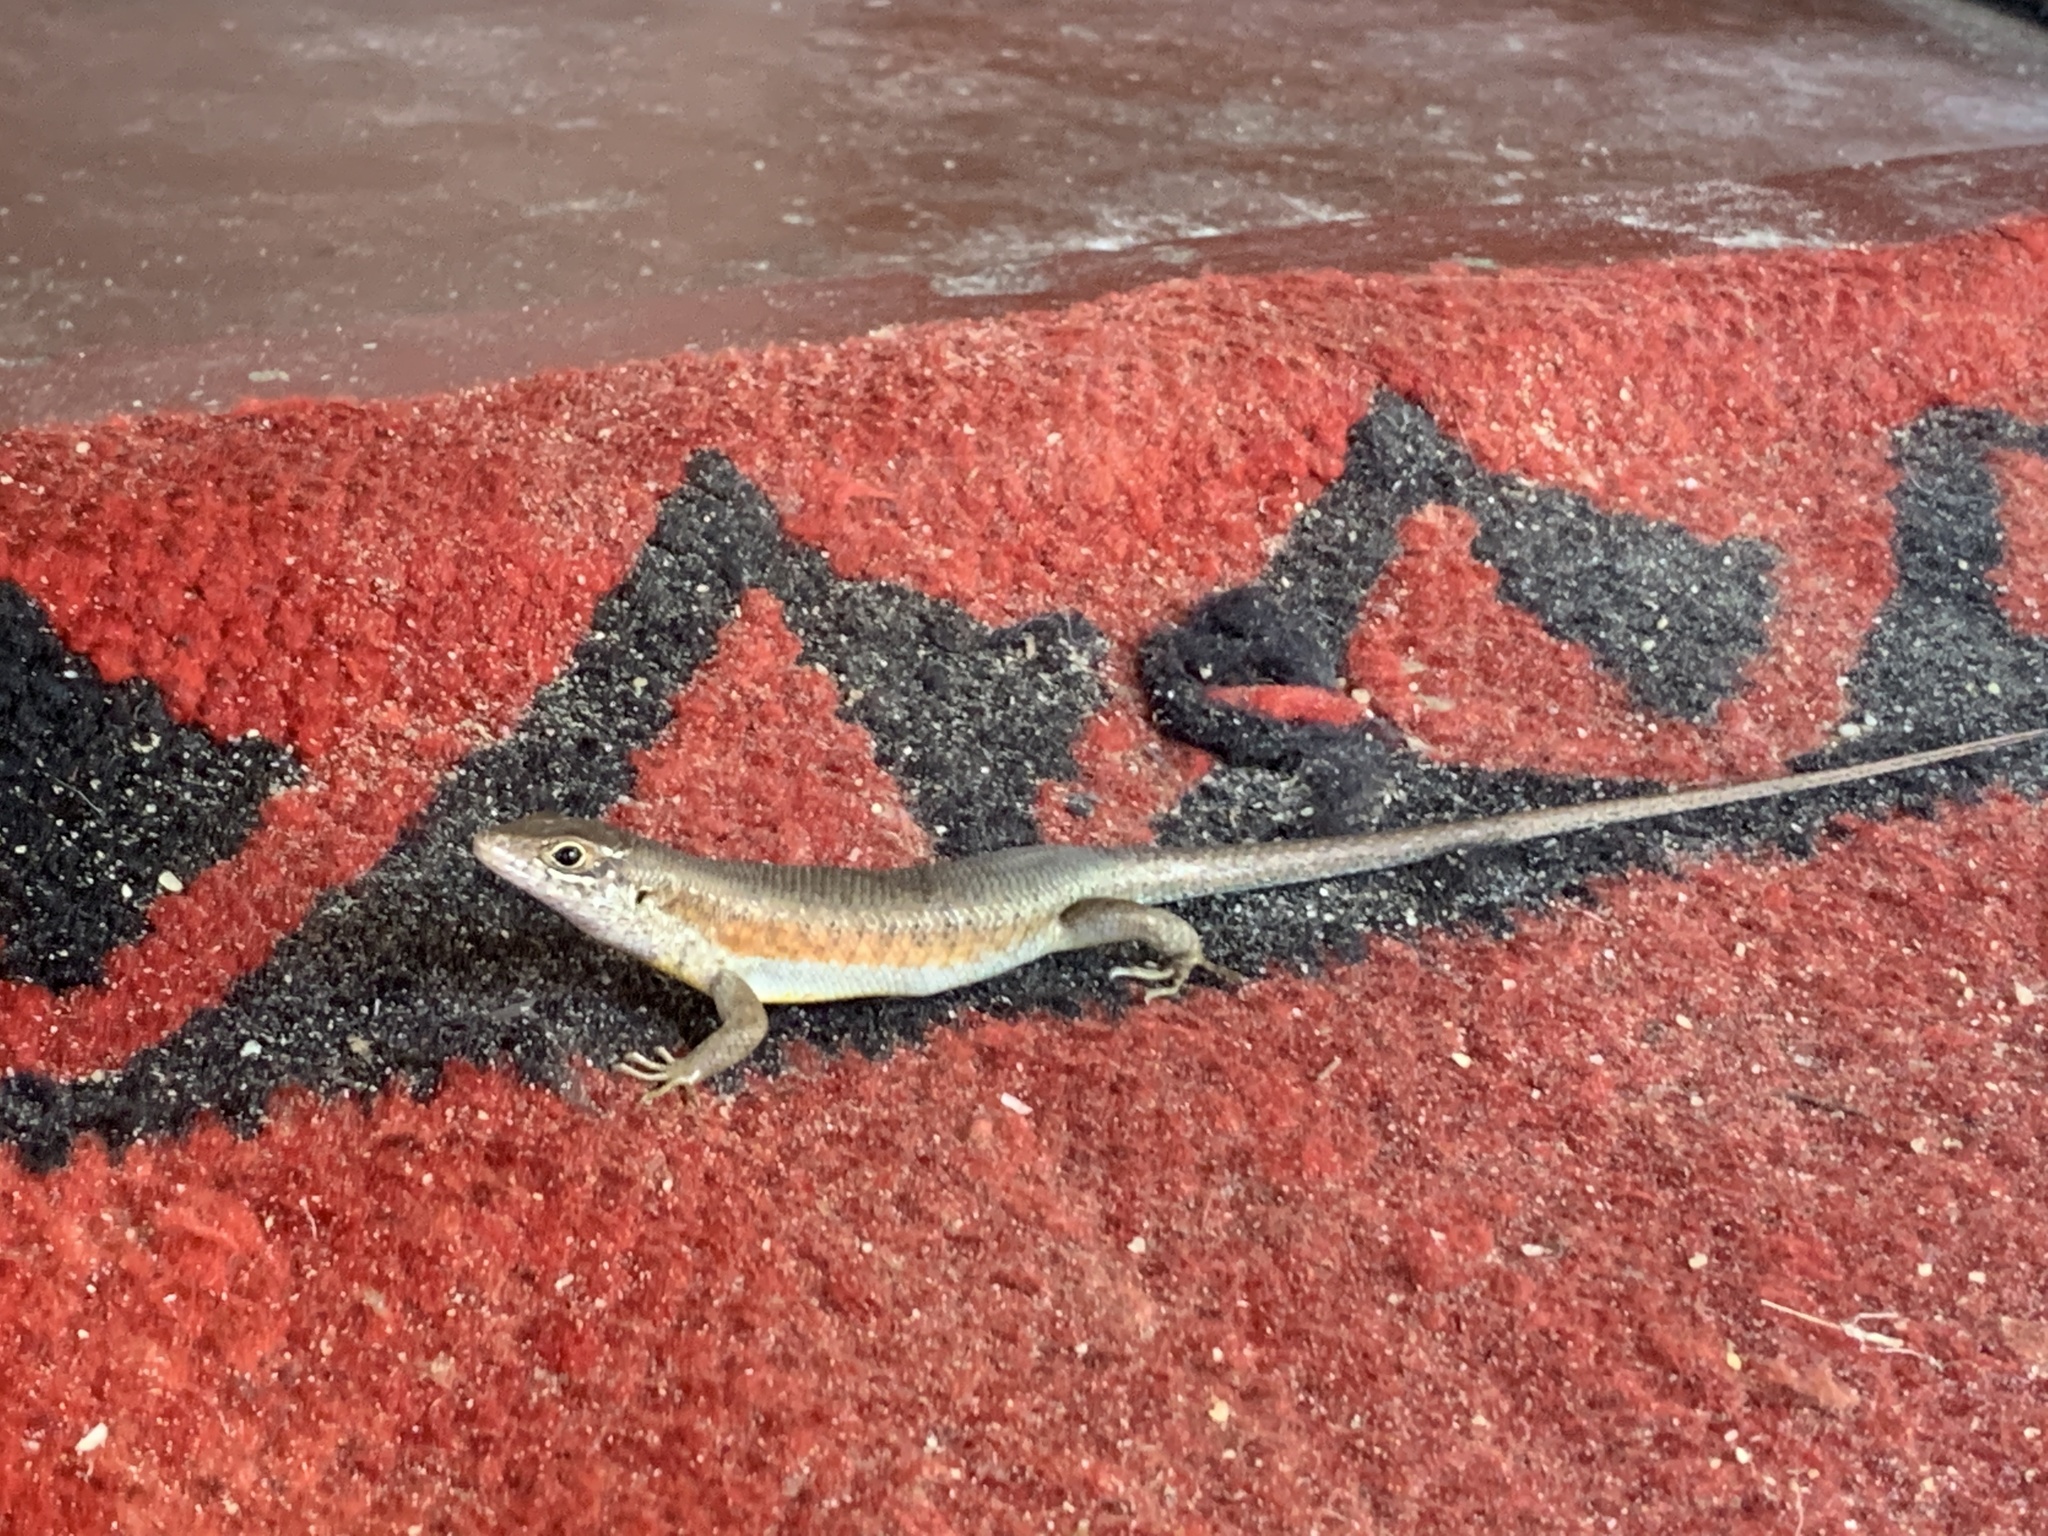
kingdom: Animalia
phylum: Chordata
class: Squamata
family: Scincidae
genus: Trachylepis
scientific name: Trachylepis maculilabris
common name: Speckle-lipped mabuya
